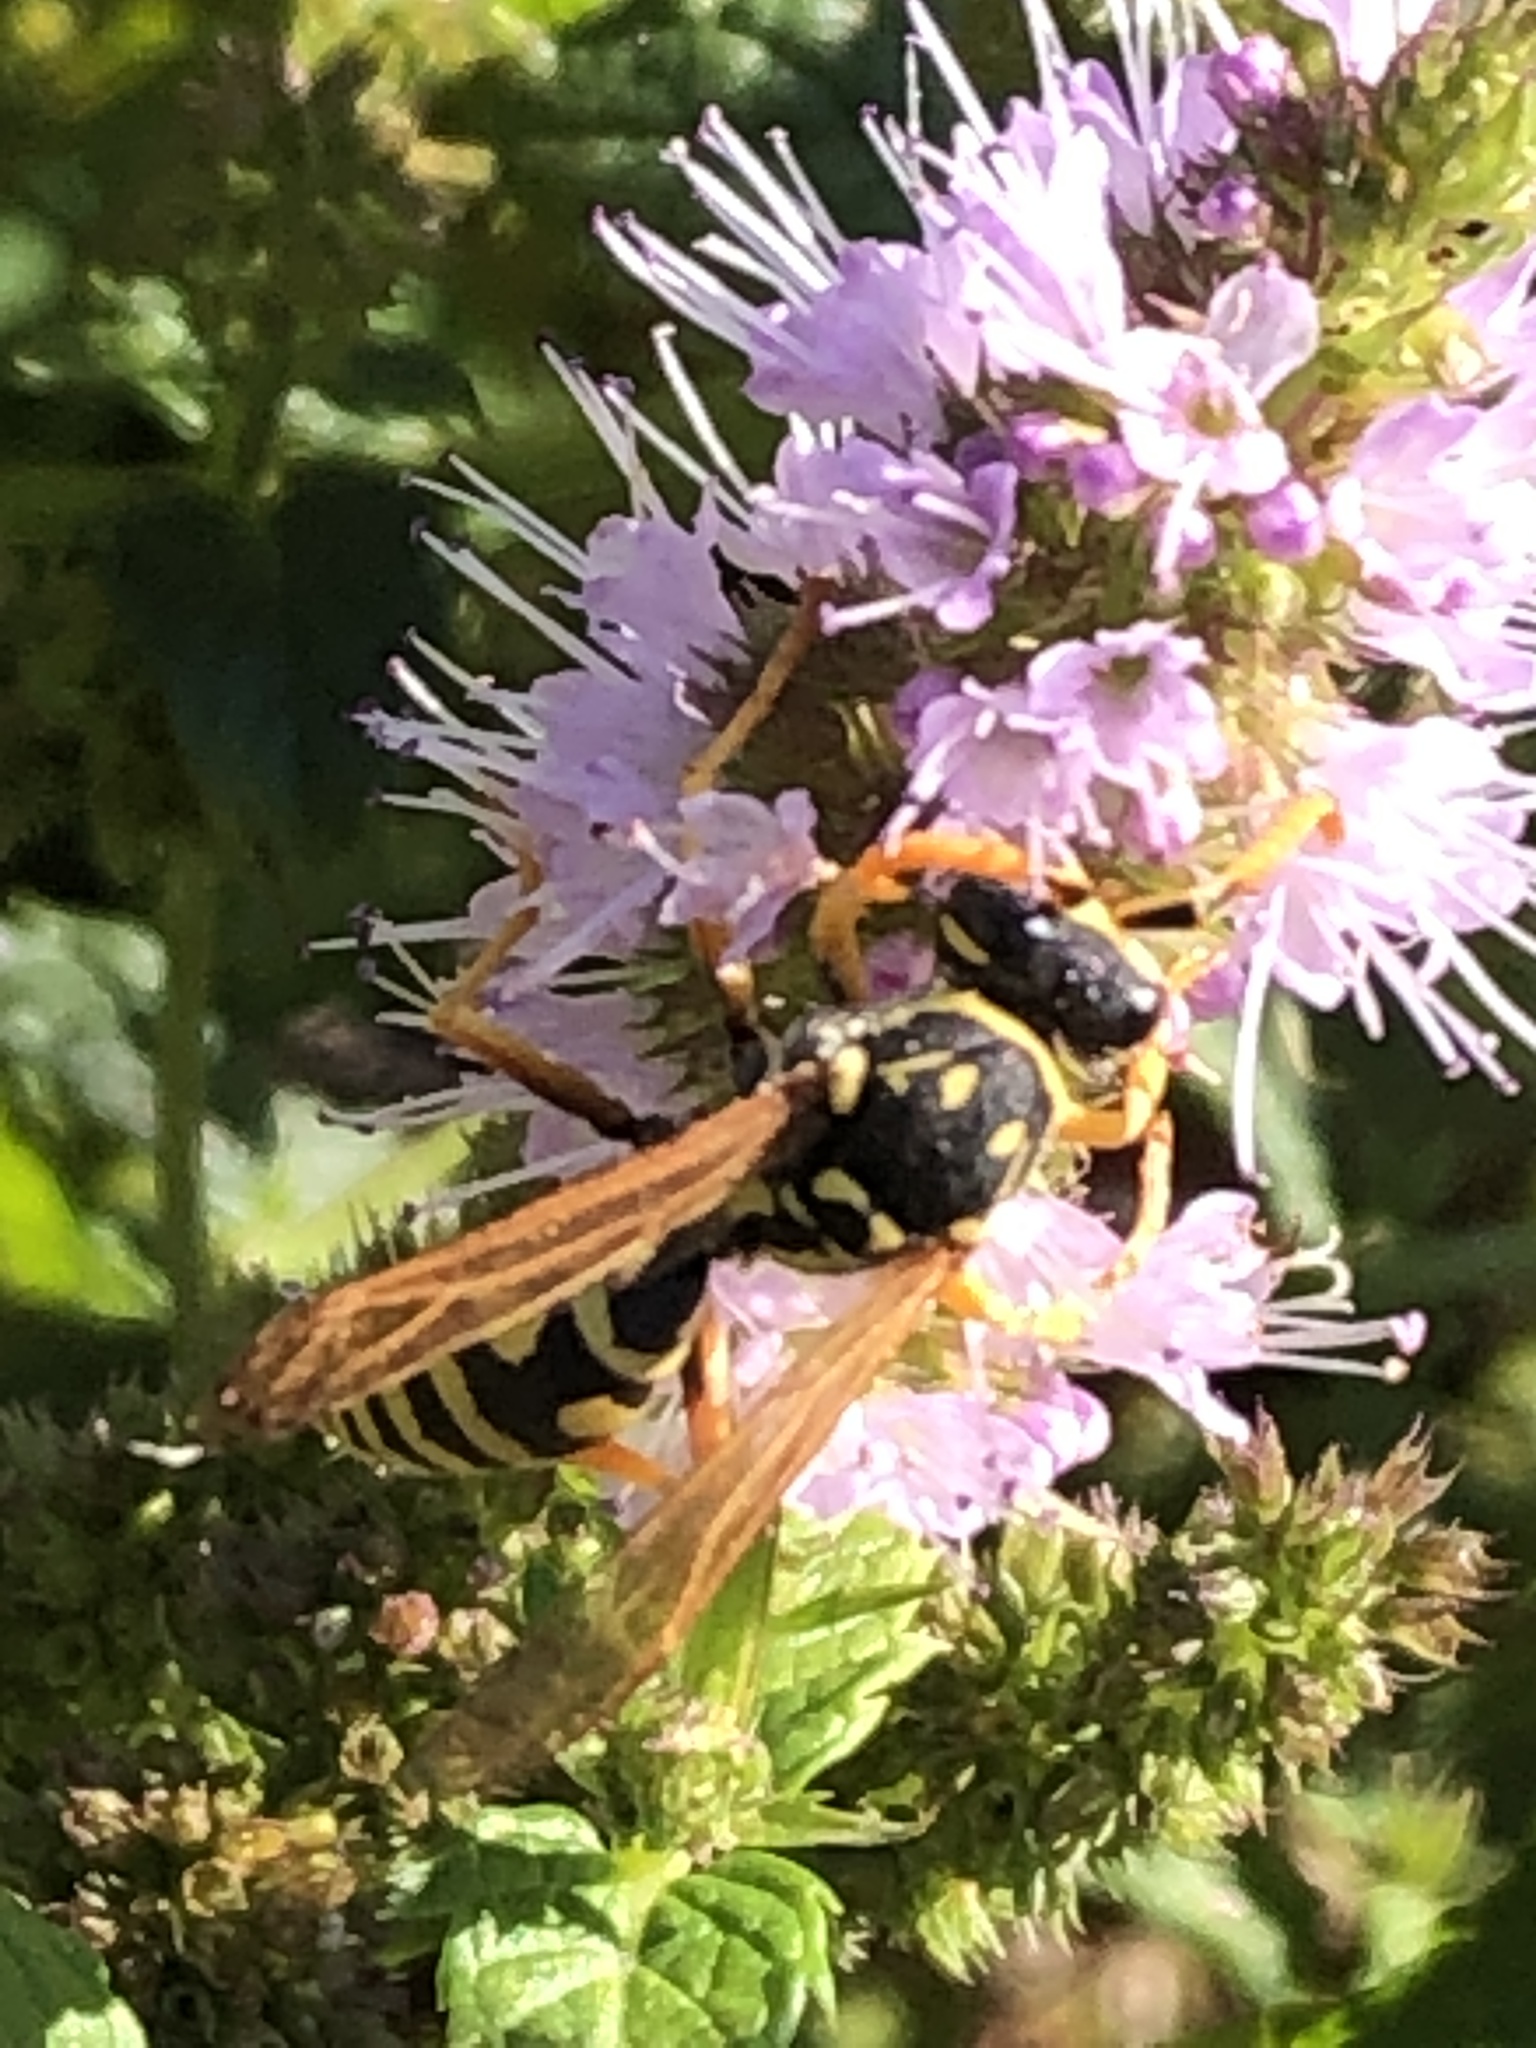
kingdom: Animalia
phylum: Arthropoda
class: Insecta
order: Hymenoptera
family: Eumenidae
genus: Polistes
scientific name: Polistes dominula
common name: Paper wasp
